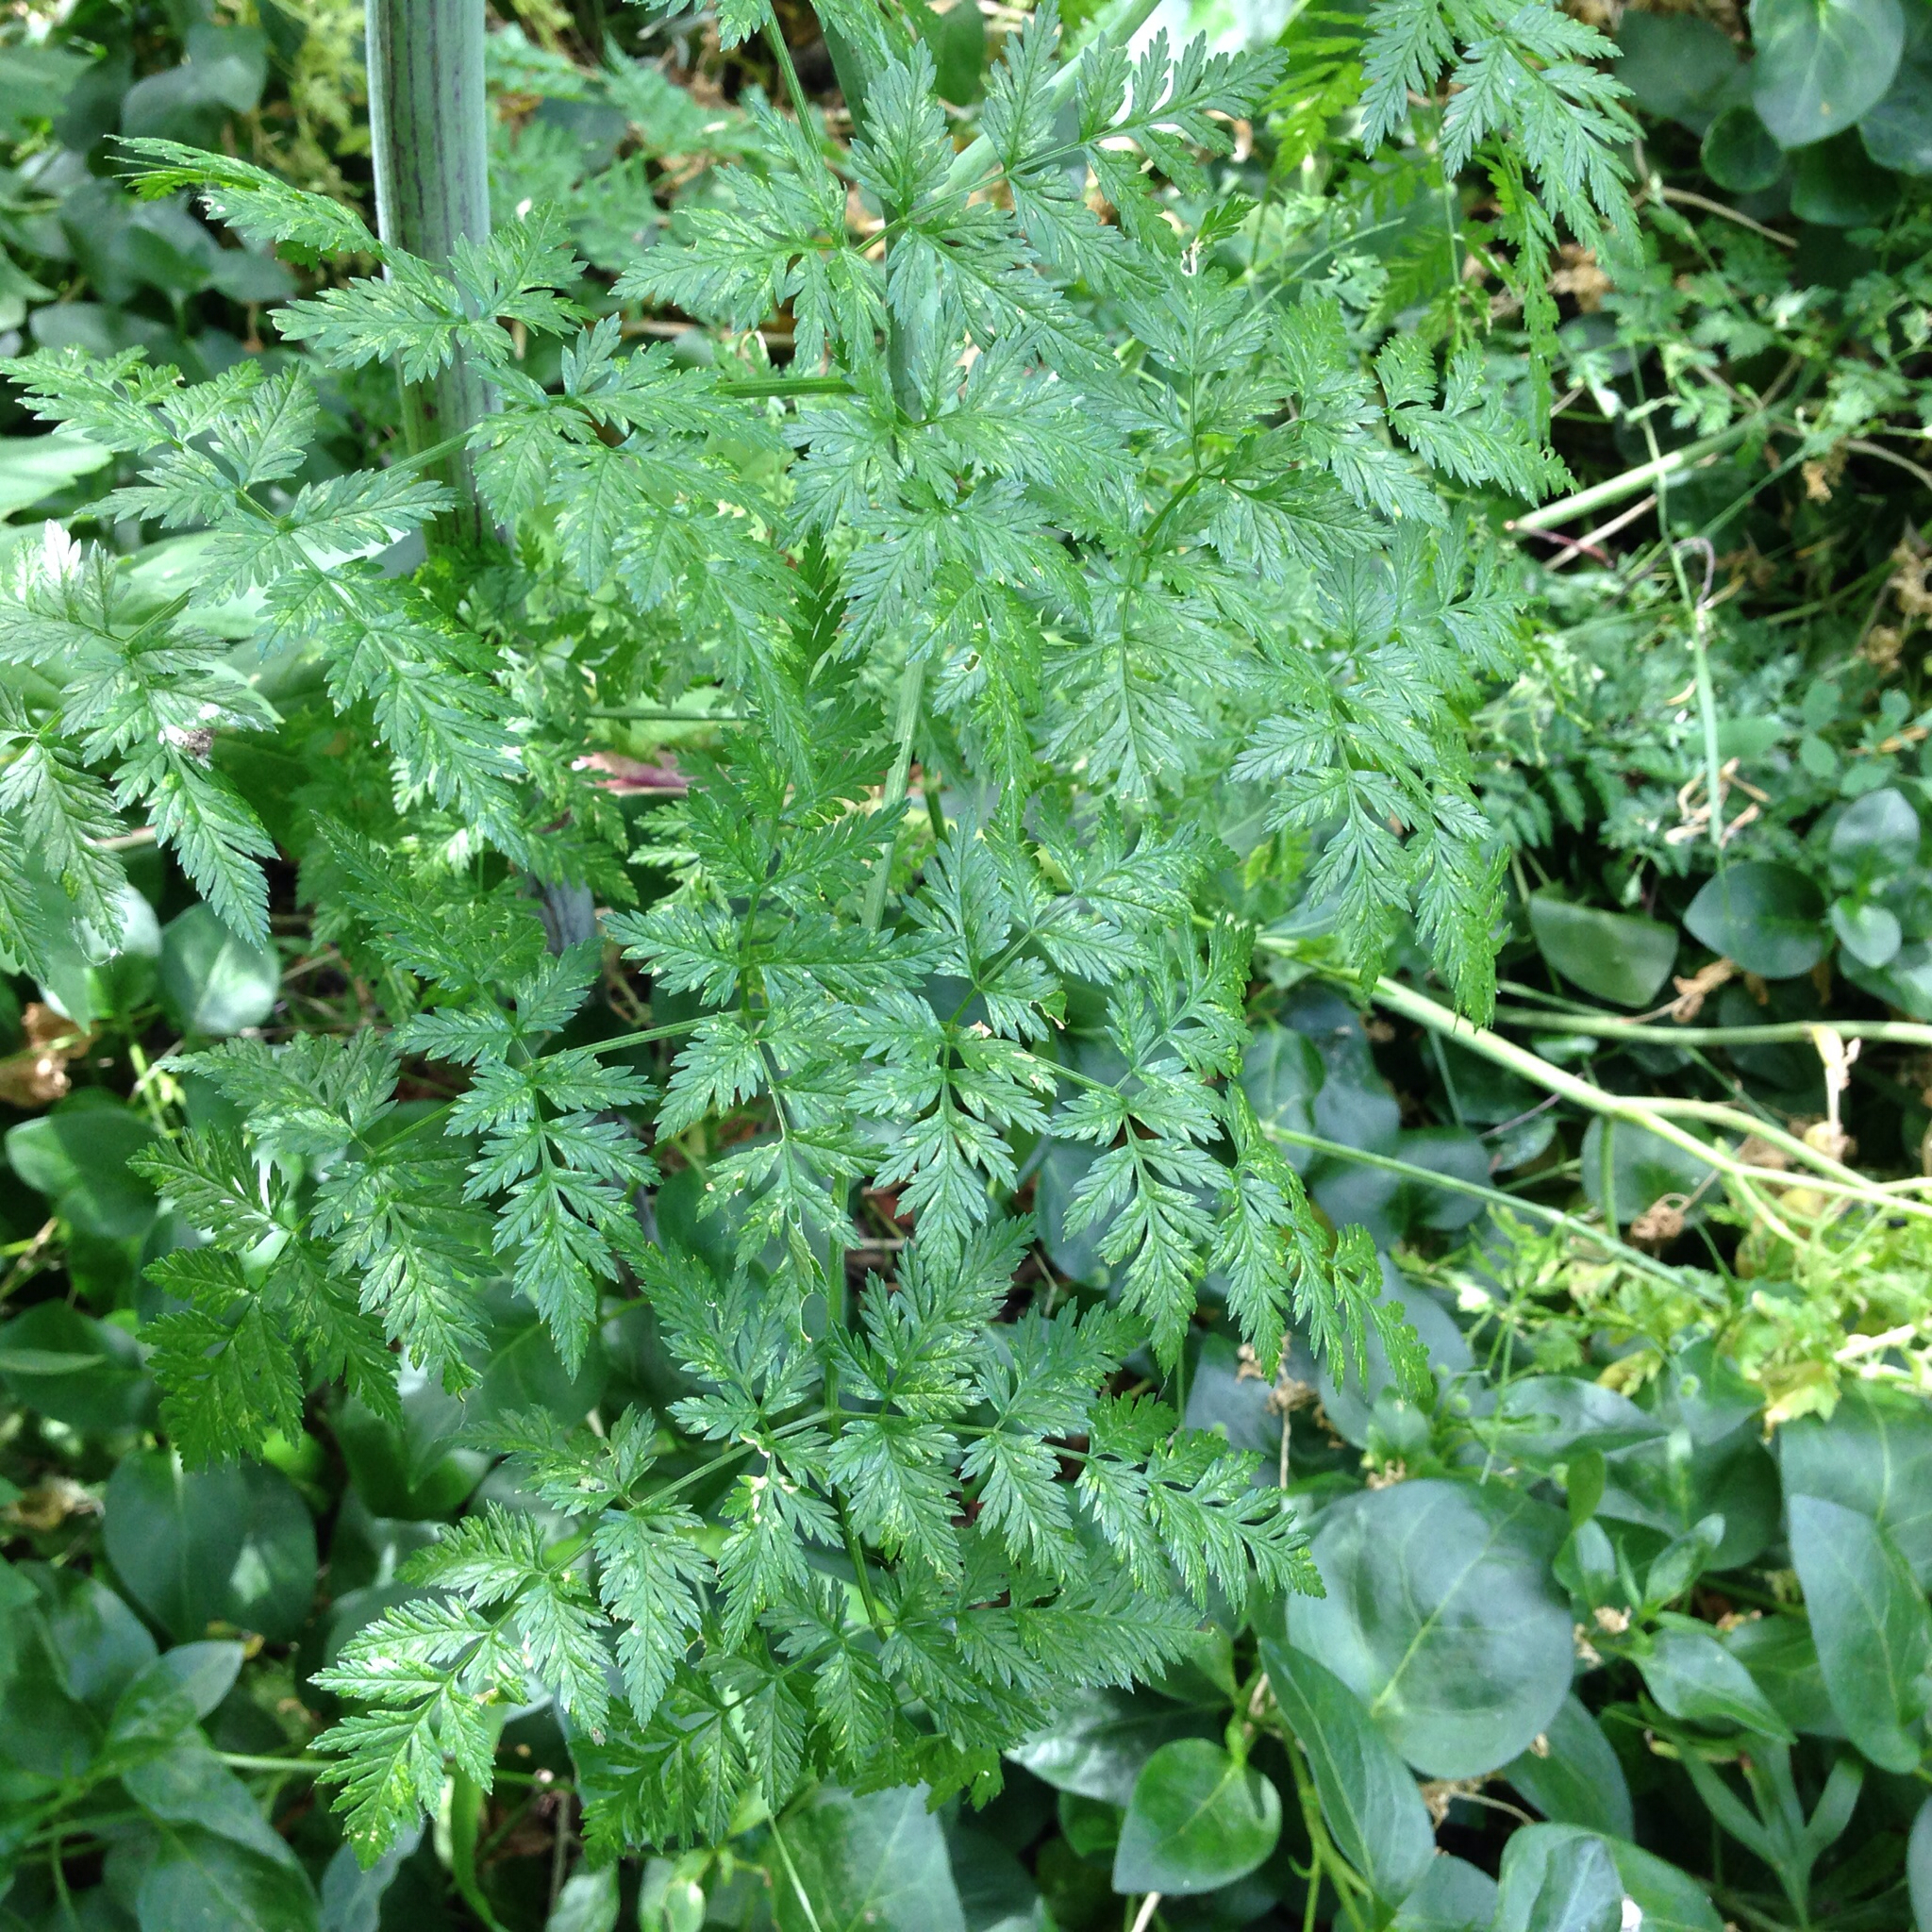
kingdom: Plantae
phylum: Tracheophyta
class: Magnoliopsida
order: Apiales
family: Apiaceae
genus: Conium
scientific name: Conium maculatum
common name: Hemlock
